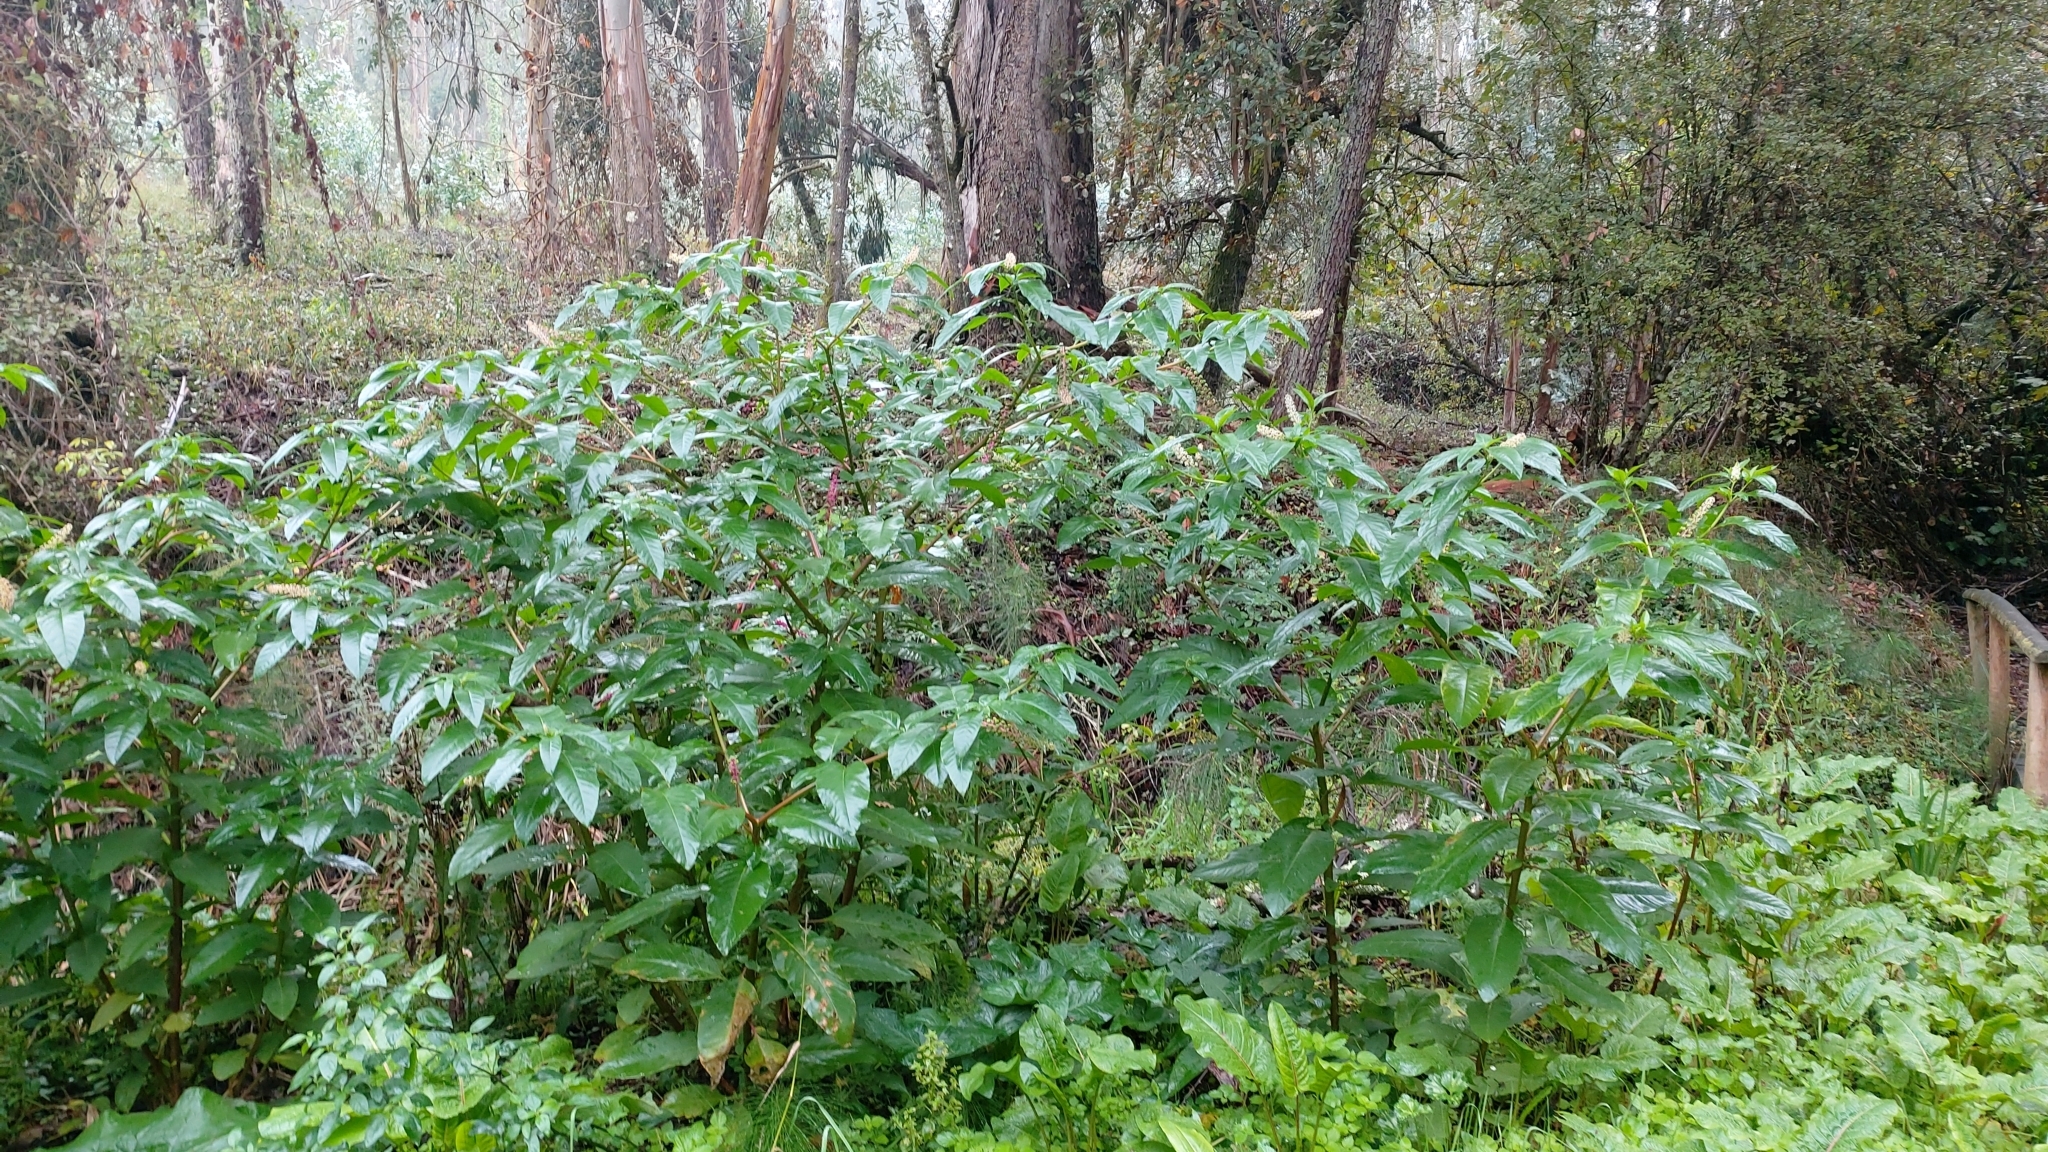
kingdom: Plantae
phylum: Tracheophyta
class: Magnoliopsida
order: Caryophyllales
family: Phytolaccaceae
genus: Phytolacca
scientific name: Phytolacca americana
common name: American pokeweed
